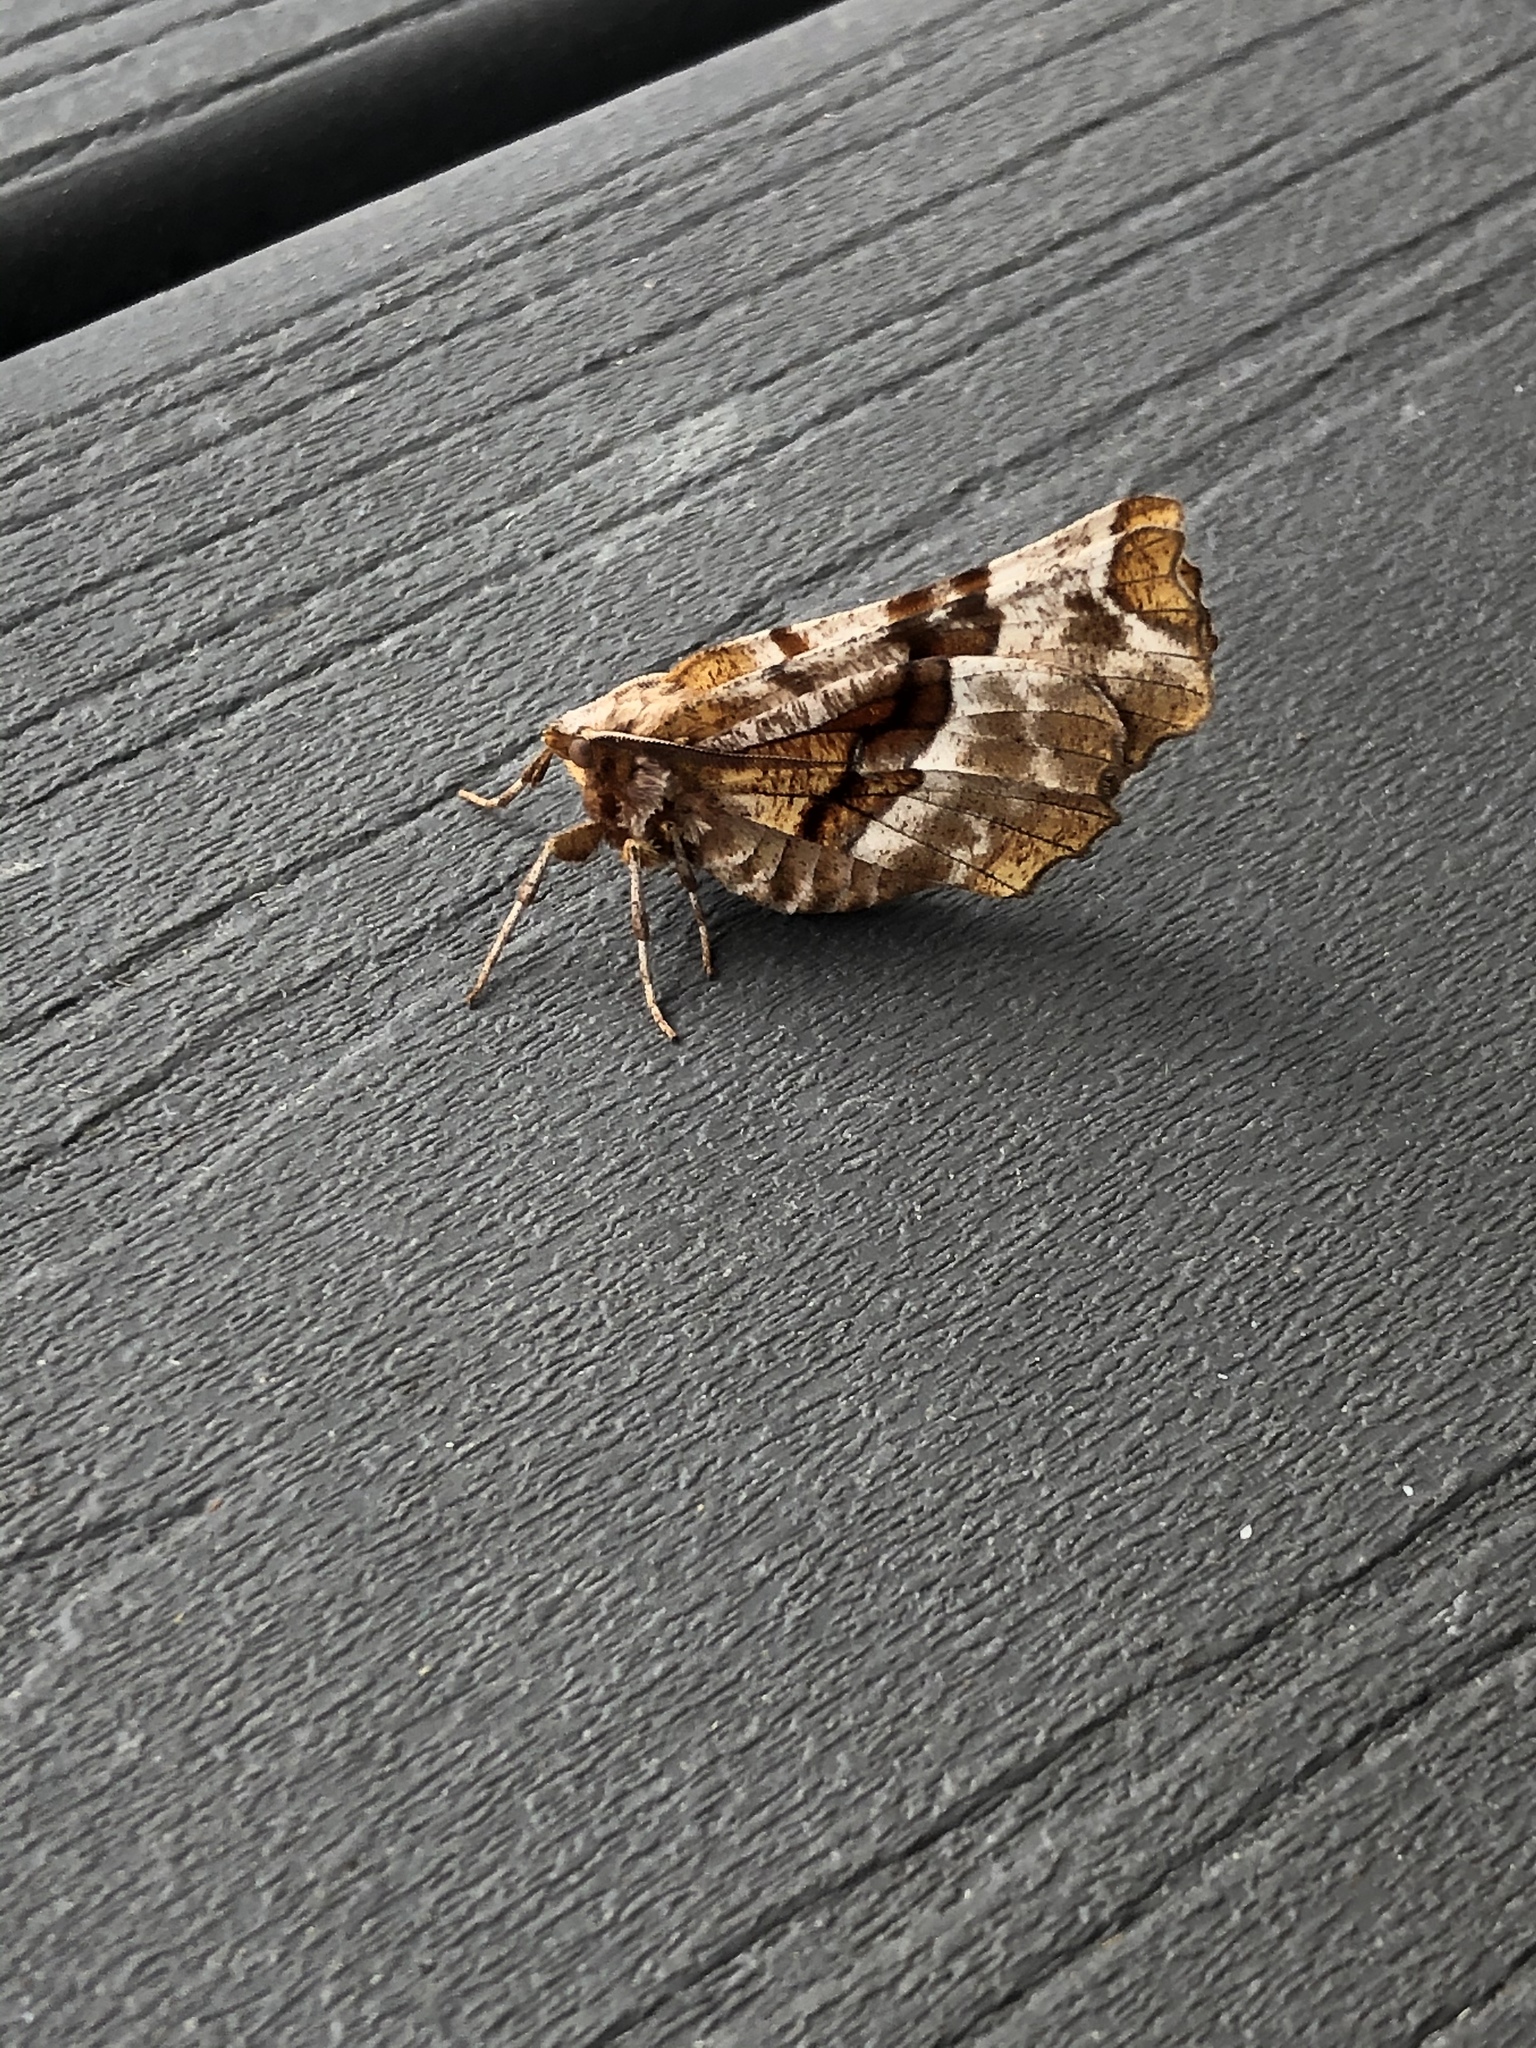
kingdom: Animalia
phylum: Arthropoda
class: Insecta
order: Lepidoptera
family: Geometridae
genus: Selenia
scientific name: Selenia kentaria
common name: Kent's geometer
